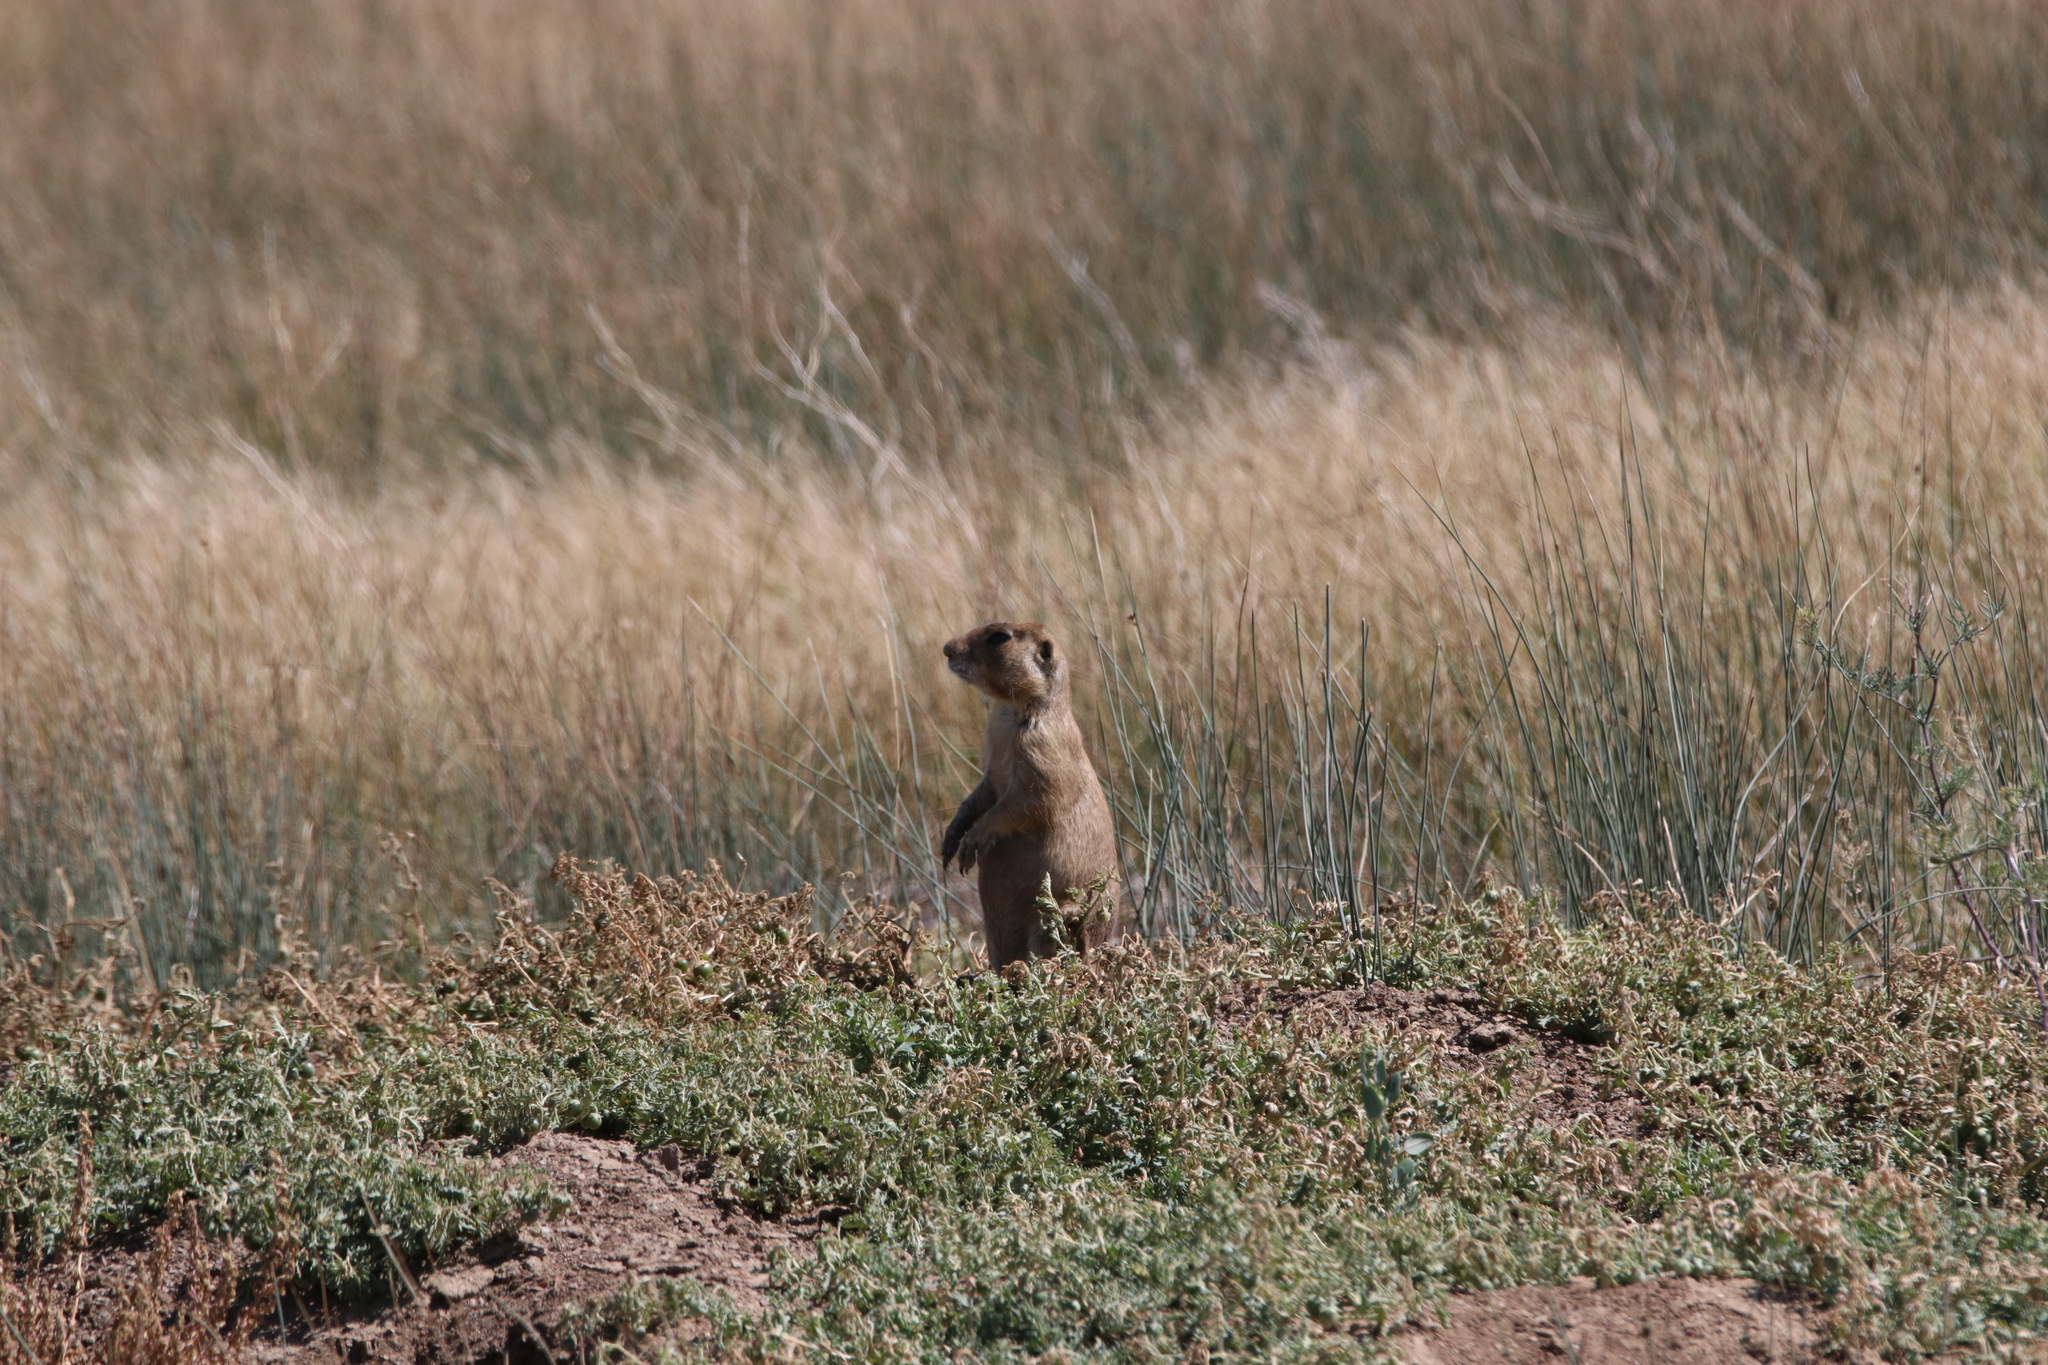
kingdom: Animalia
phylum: Chordata
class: Mammalia
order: Rodentia
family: Sciuridae
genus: Cynomys
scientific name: Cynomys leucurus
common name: White-tailed prairie dog
